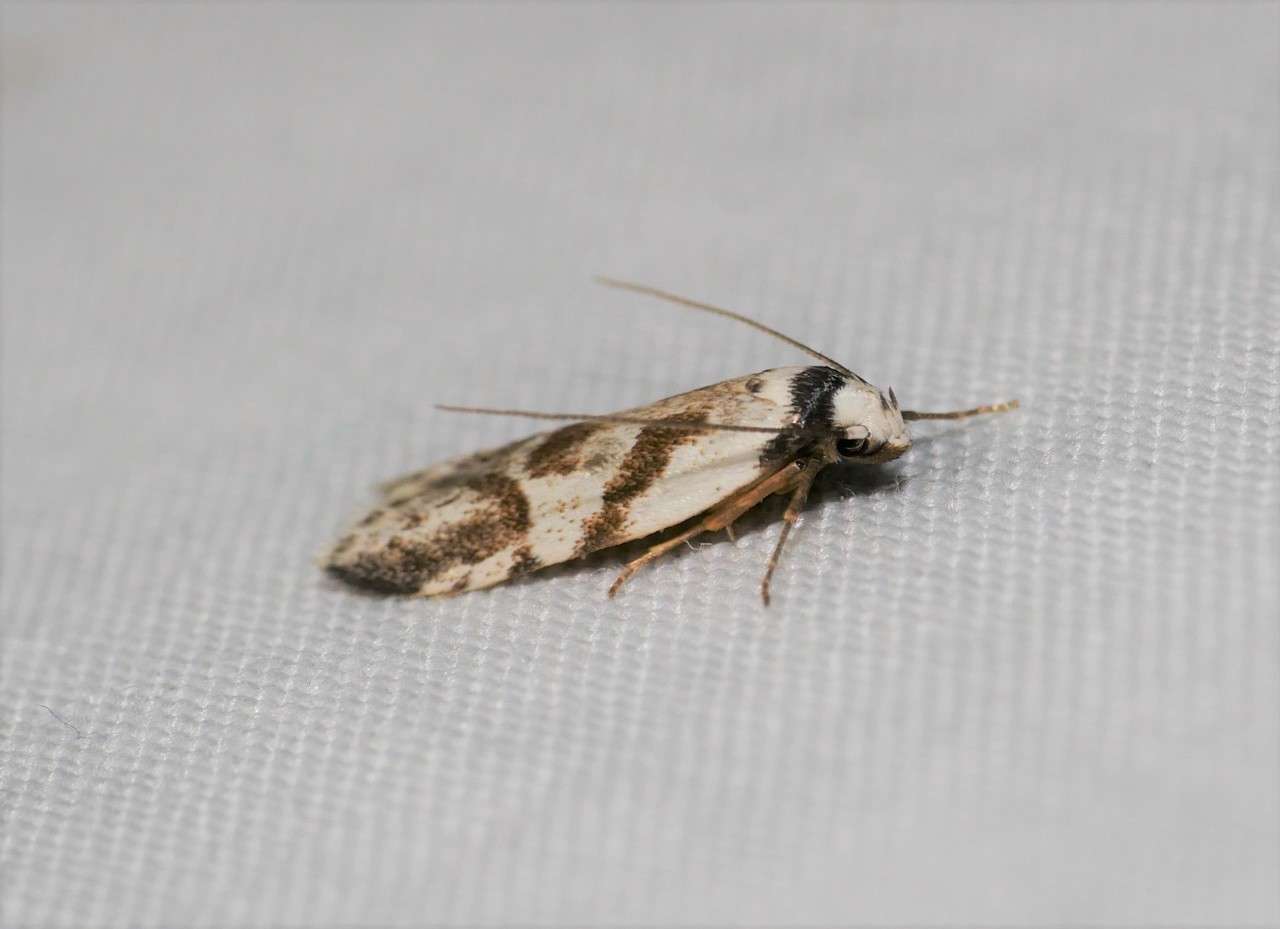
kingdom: Animalia
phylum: Arthropoda
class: Insecta
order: Lepidoptera
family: Oecophoridae
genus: Oxythecta
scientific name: Oxythecta lygrosema
